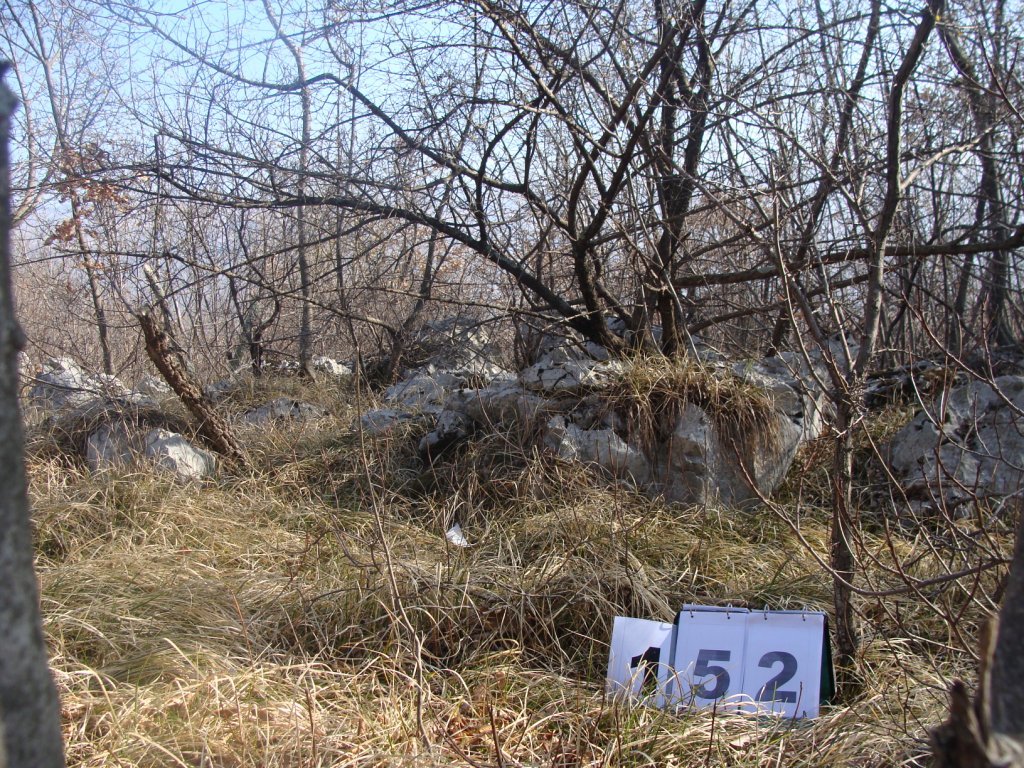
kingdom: Plantae
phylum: Tracheophyta
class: Magnoliopsida
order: Cornales
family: Cornaceae
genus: Cornus
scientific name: Cornus mas
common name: Cornelian-cherry
